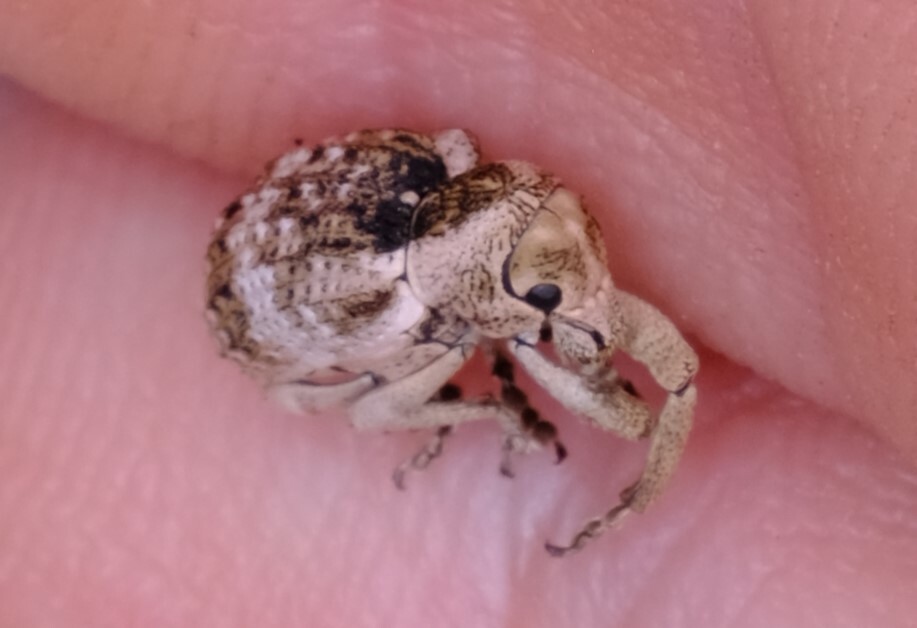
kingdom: Animalia
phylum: Arthropoda
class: Insecta
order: Coleoptera
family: Curculionidae
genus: Aades
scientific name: Aades
